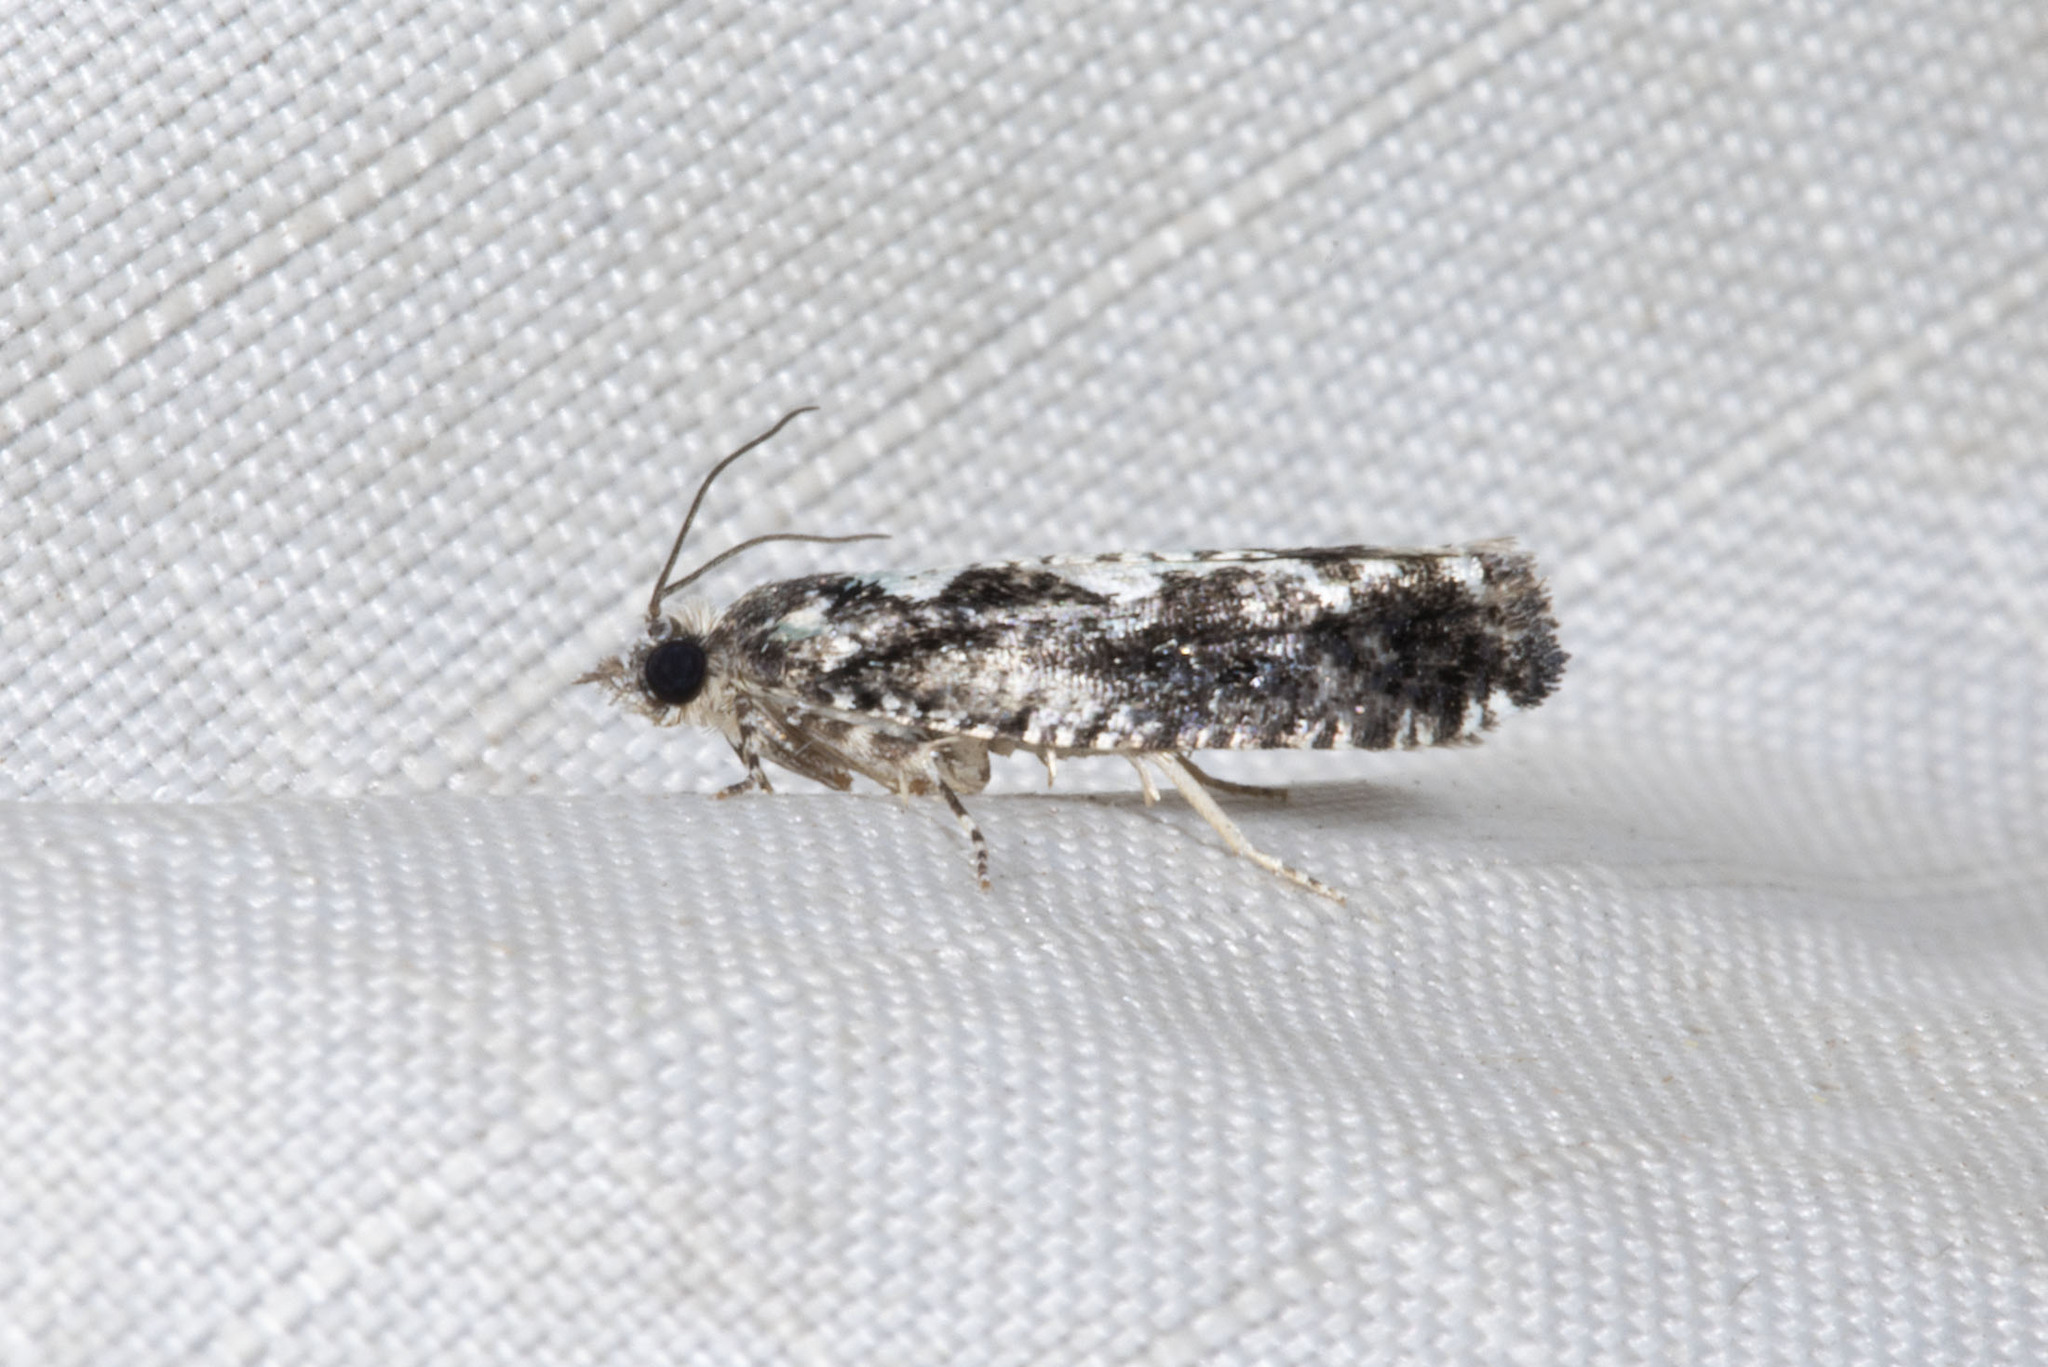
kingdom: Animalia
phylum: Arthropoda
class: Insecta
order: Lepidoptera
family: Tortricidae
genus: Chimoptesis
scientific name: Chimoptesis pennsylvaniana
